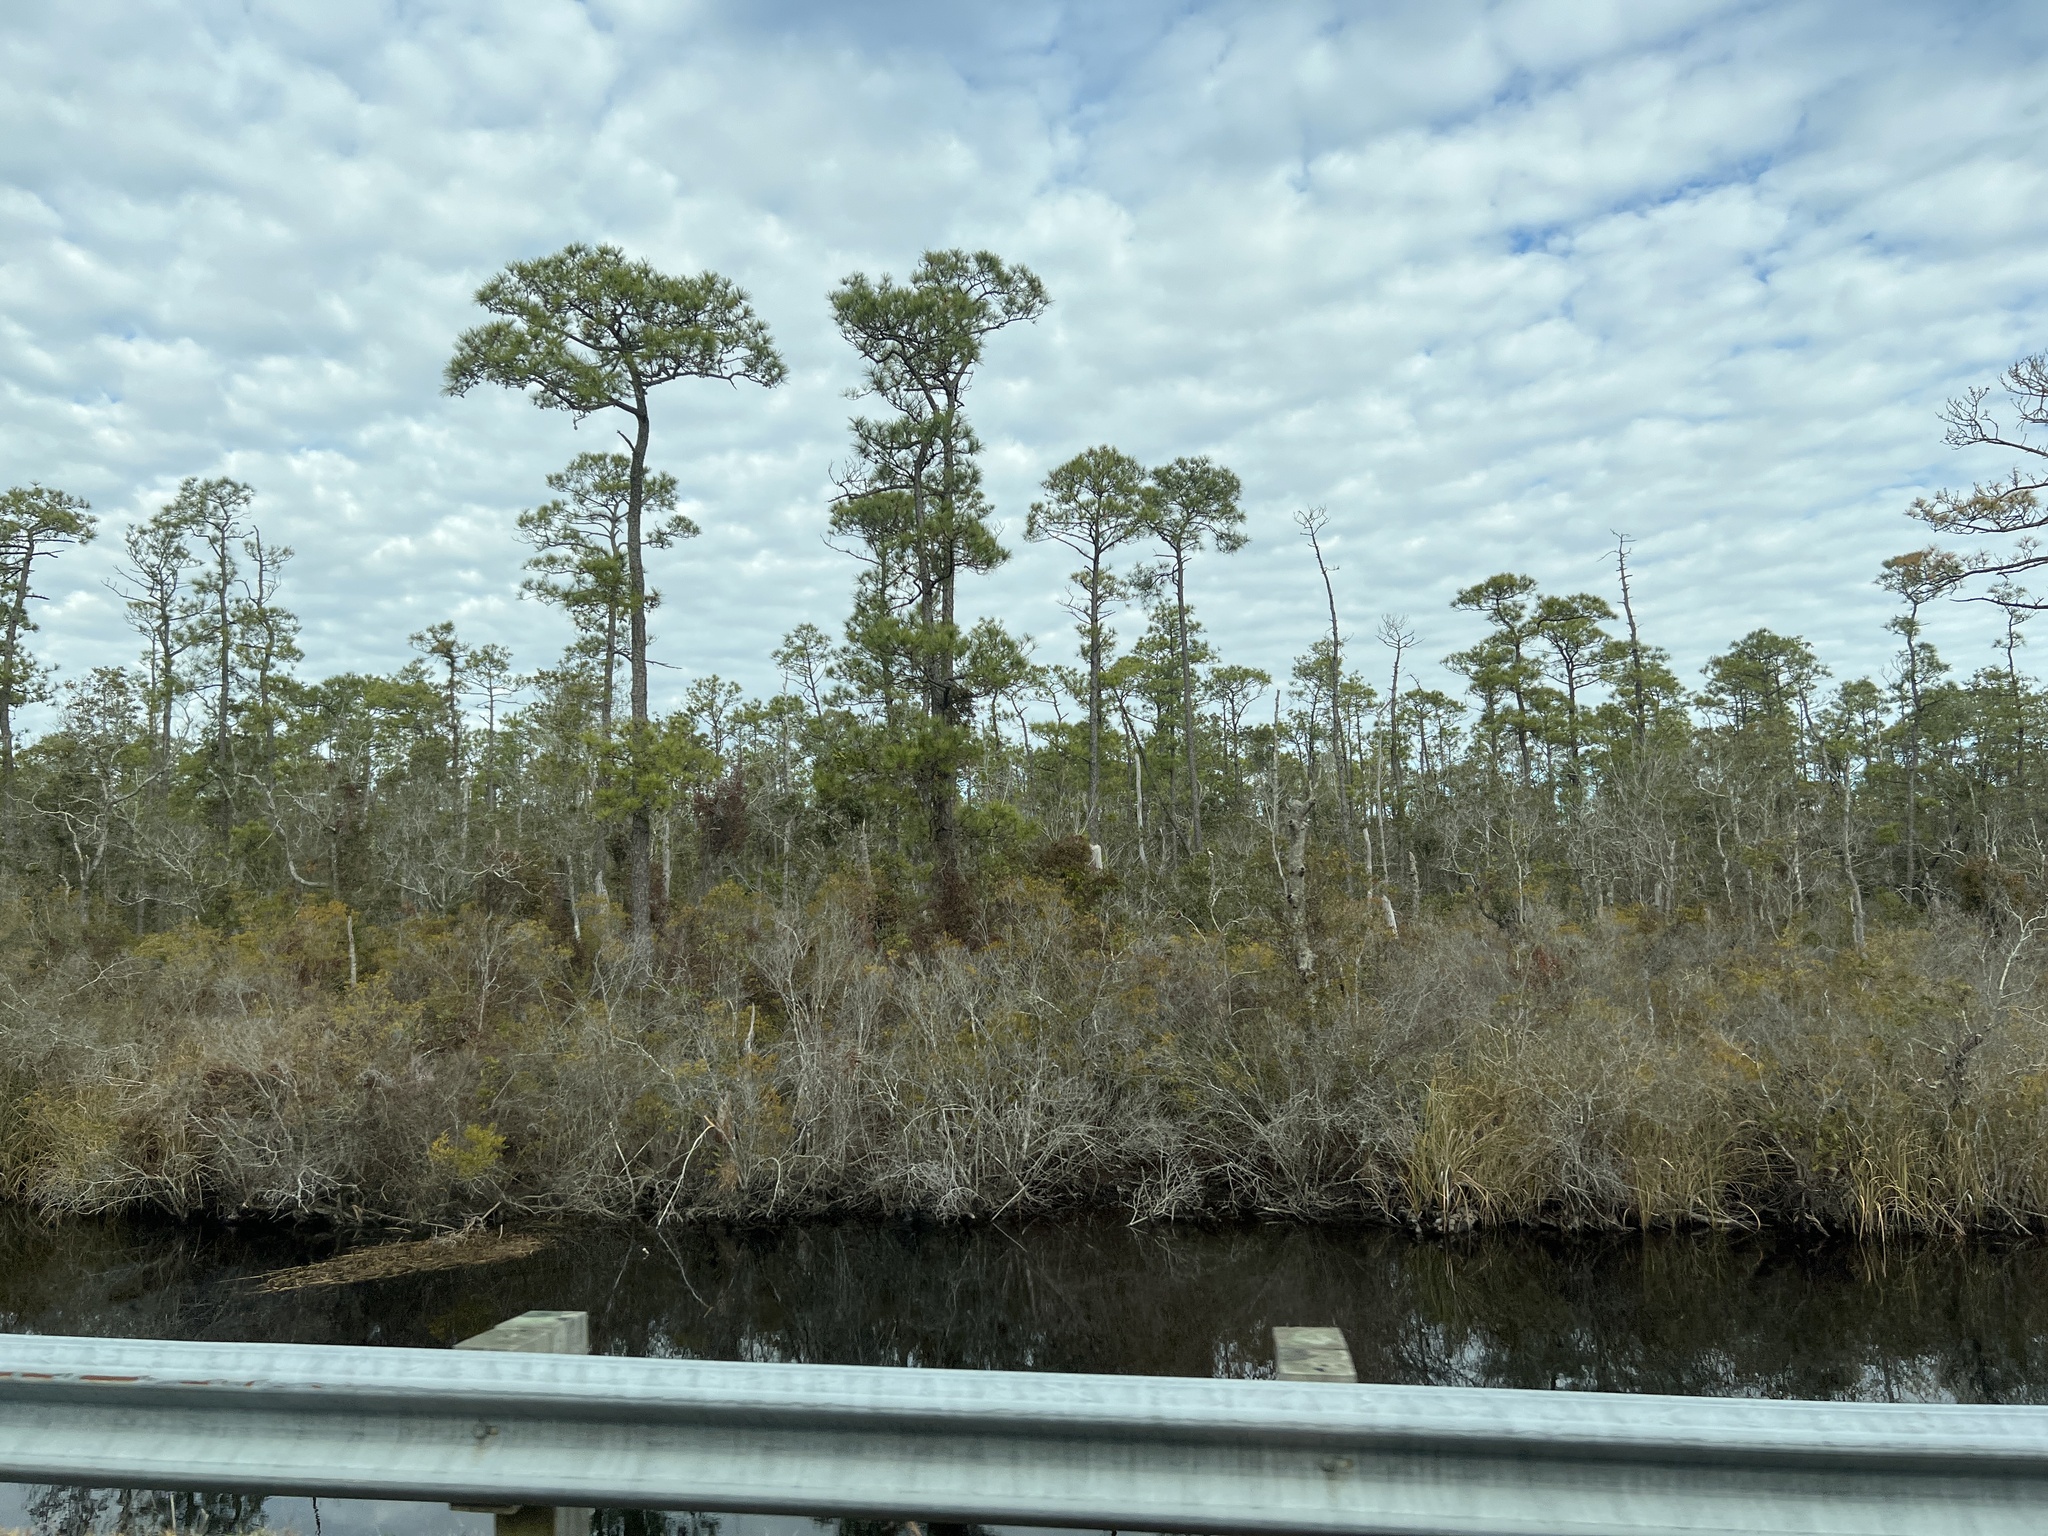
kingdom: Plantae
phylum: Tracheophyta
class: Pinopsida
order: Pinales
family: Pinaceae
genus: Pinus
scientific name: Pinus serotina
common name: Marsh pine
